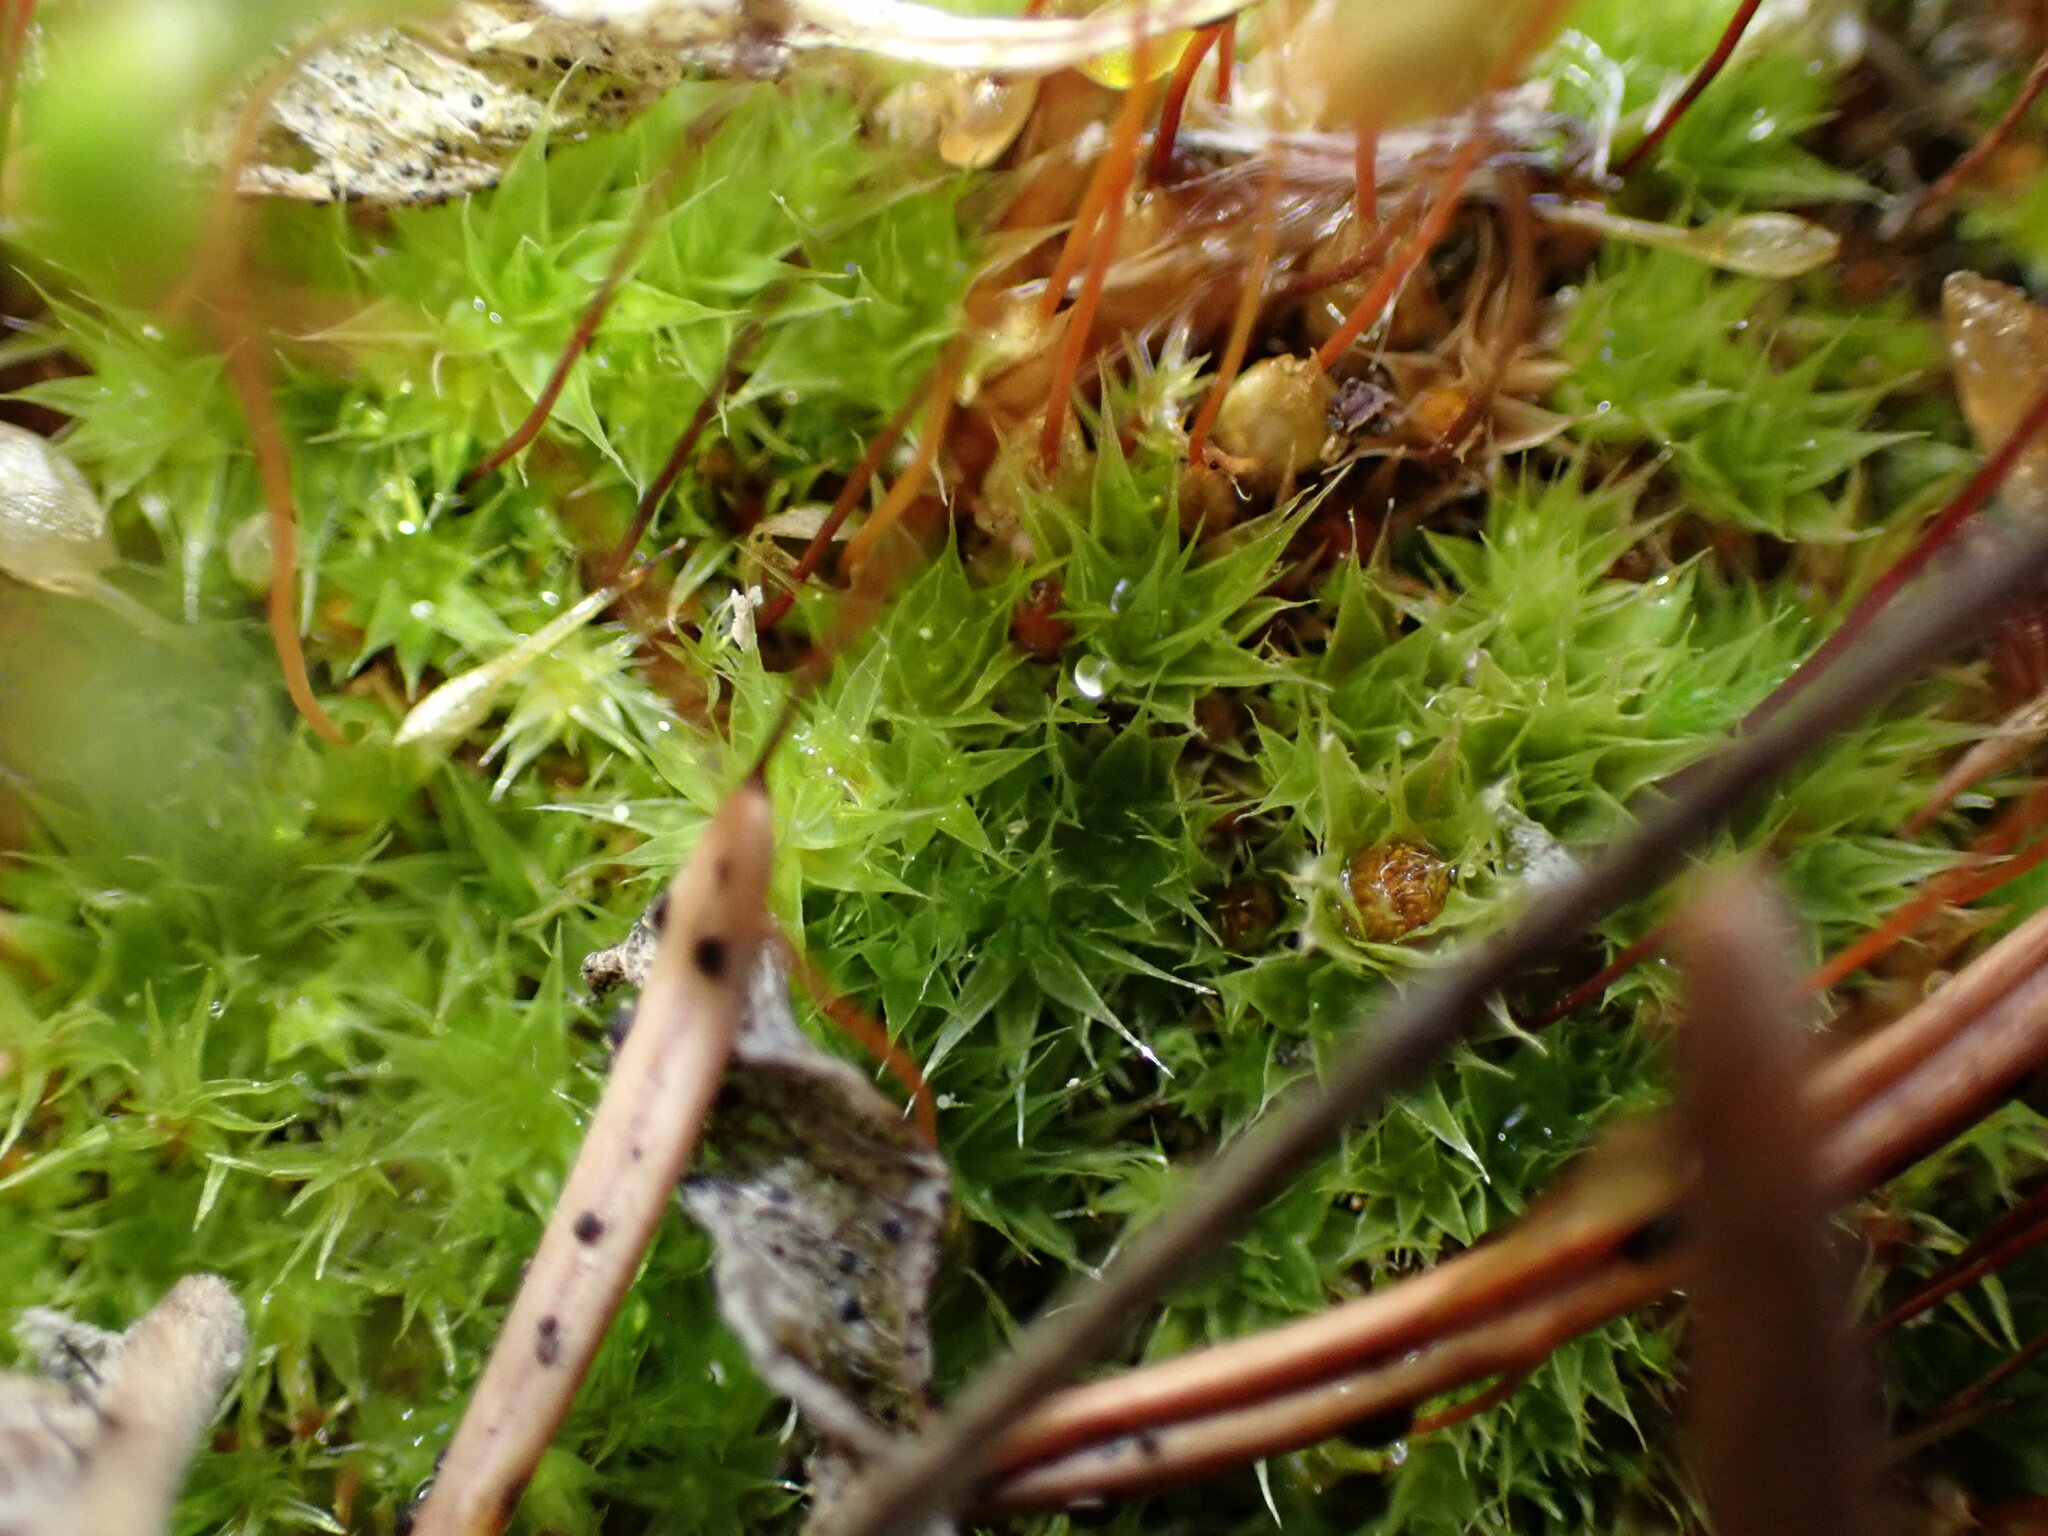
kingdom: Plantae
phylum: Bryophyta
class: Bryopsida
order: Funariales
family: Funariaceae
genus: Funaria
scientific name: Funaria hygrometrica
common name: Common cord moss
